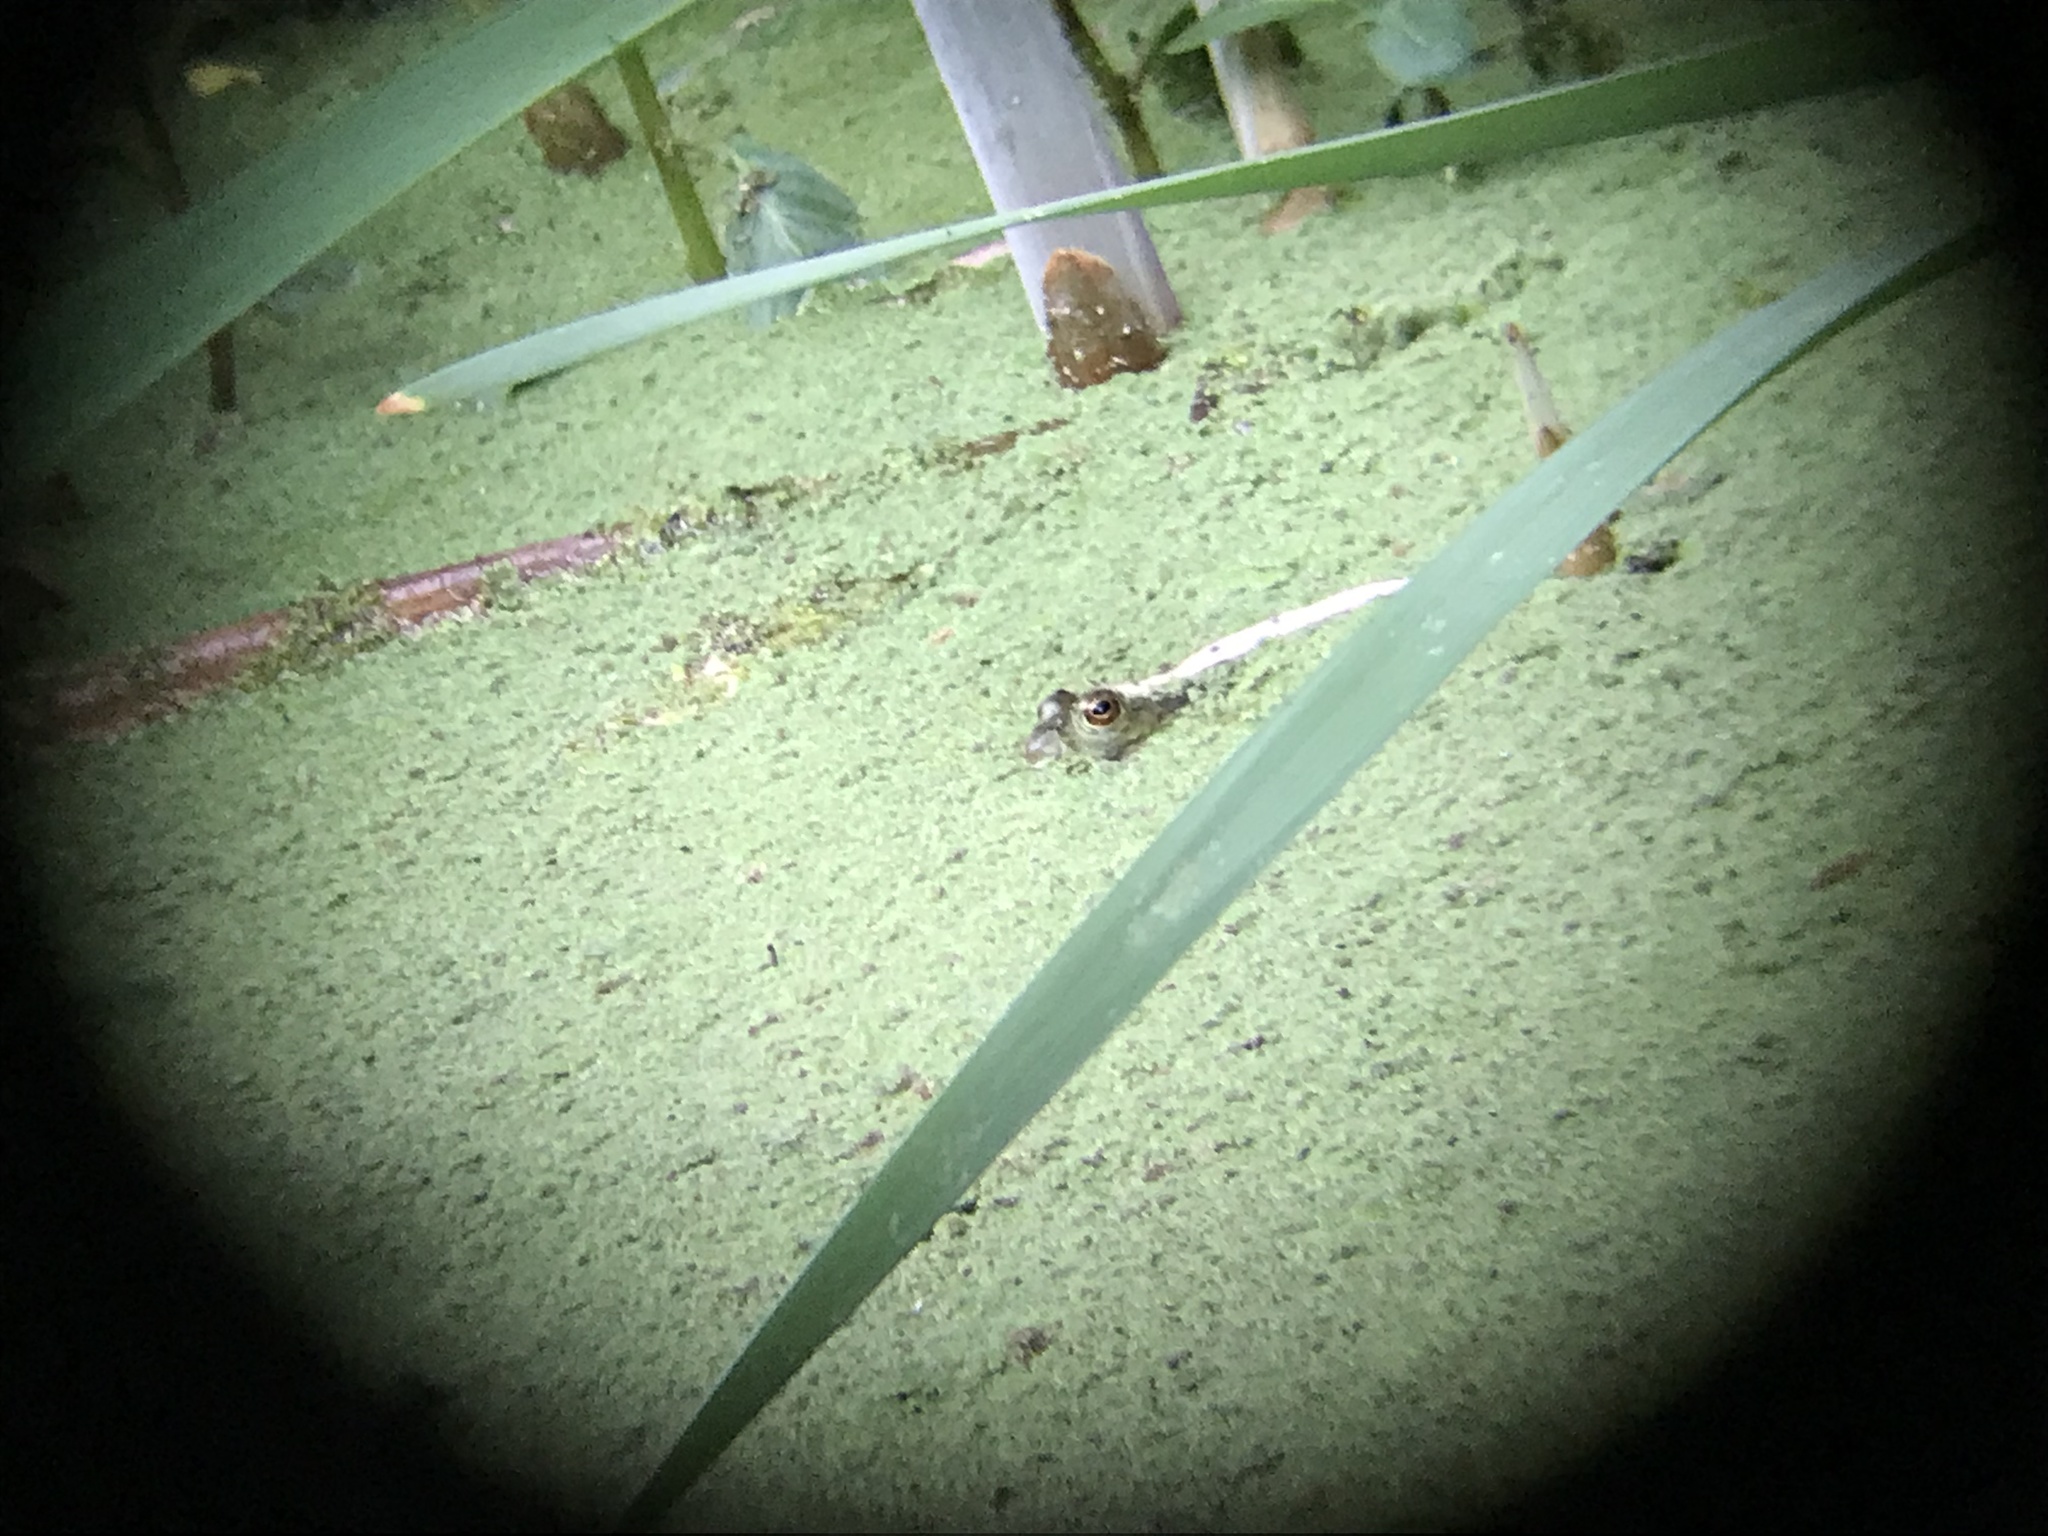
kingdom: Animalia
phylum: Chordata
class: Amphibia
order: Anura
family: Ranidae
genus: Lithobates
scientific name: Lithobates catesbeianus
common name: American bullfrog
